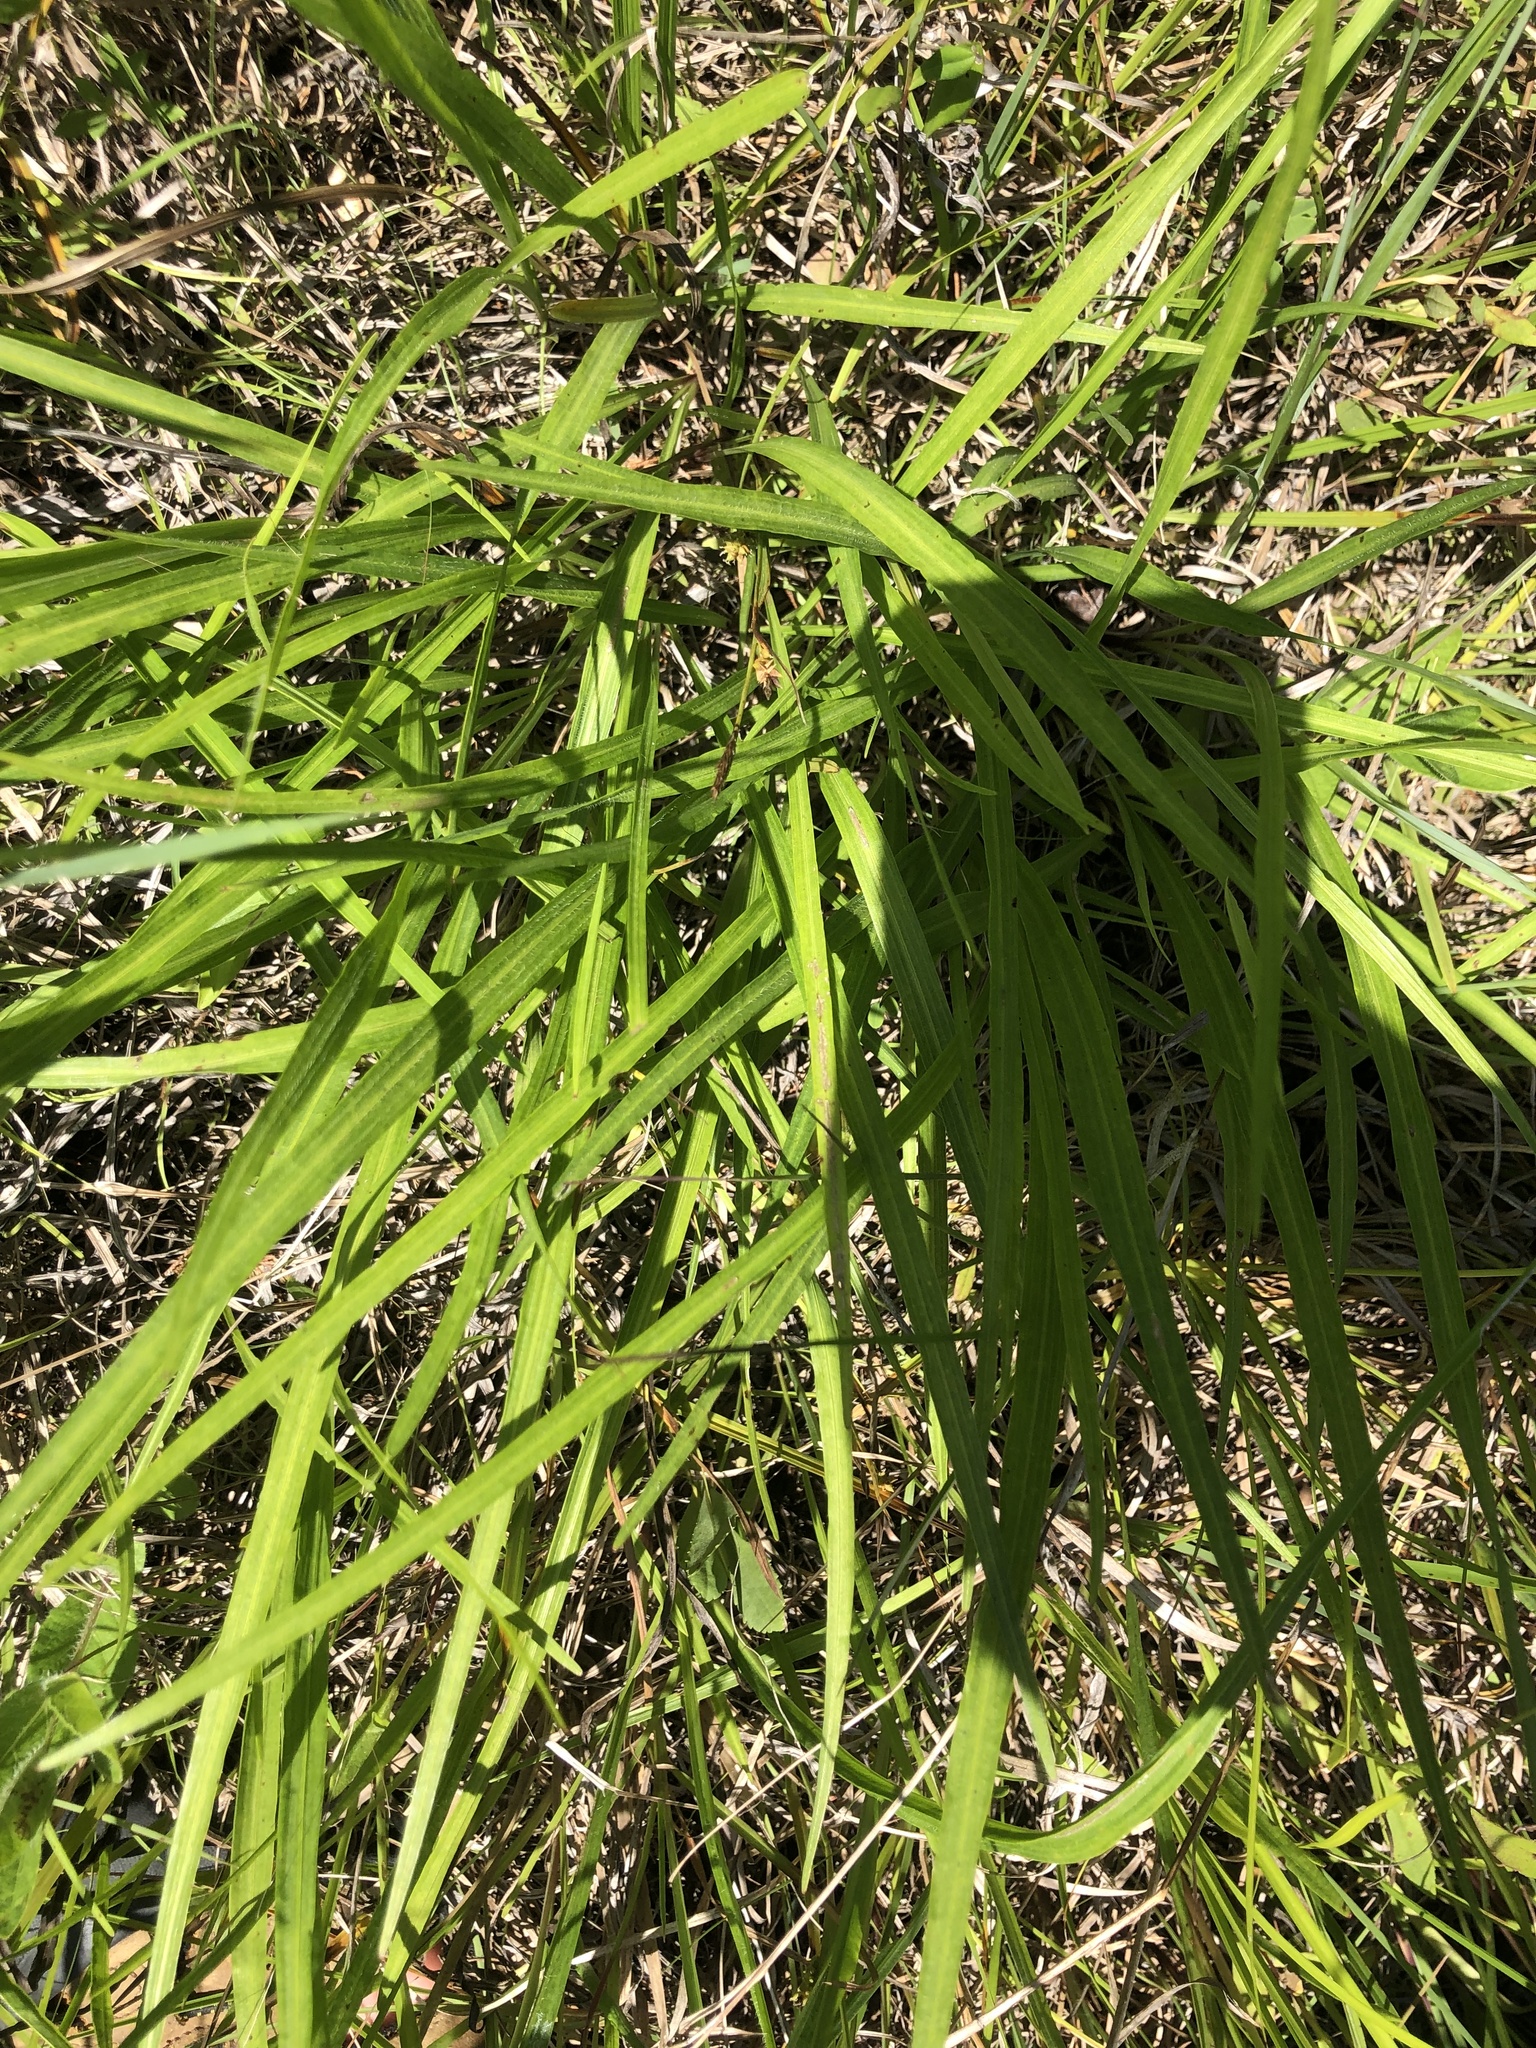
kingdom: Plantae
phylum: Tracheophyta
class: Magnoliopsida
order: Asterales
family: Asteraceae
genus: Liatris
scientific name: Liatris spicata
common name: Florist gayfeather
